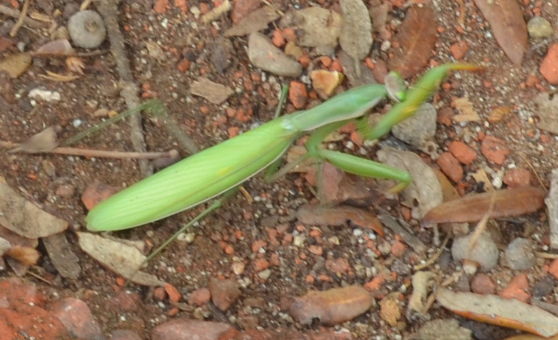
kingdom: Animalia
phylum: Arthropoda
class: Insecta
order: Mantodea
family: Mantidae
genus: Mantis
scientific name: Mantis religiosa
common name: Praying mantis
